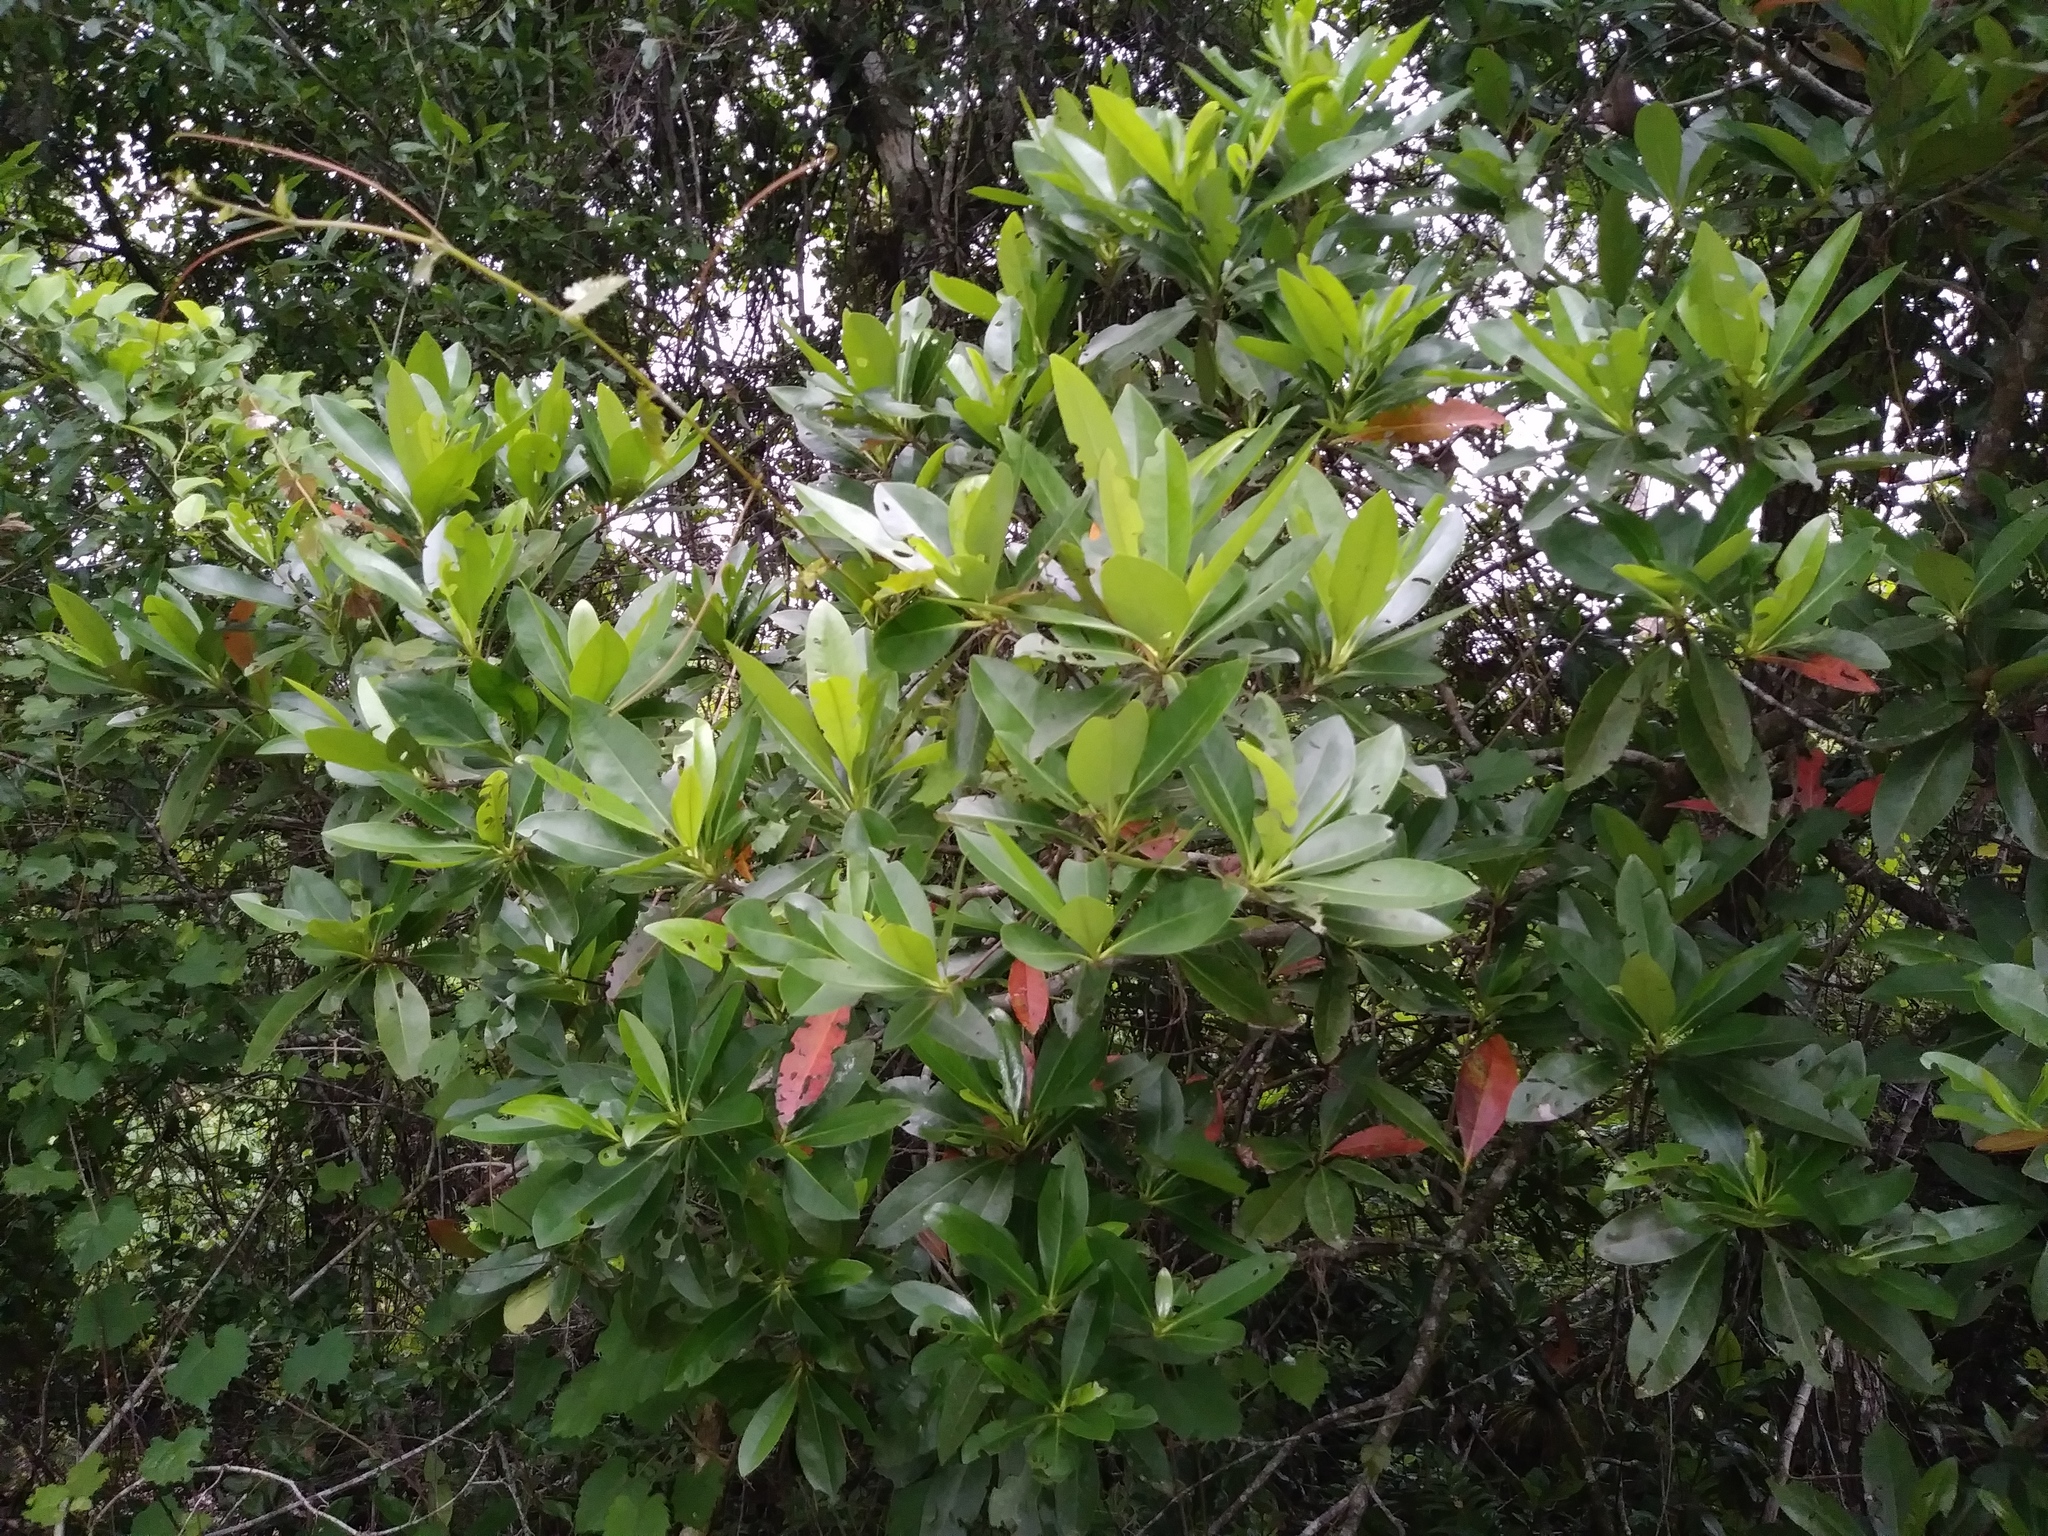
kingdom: Plantae
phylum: Tracheophyta
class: Magnoliopsida
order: Ericales
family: Theaceae
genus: Gordonia
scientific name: Gordonia lasianthus
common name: Loblolly bay
